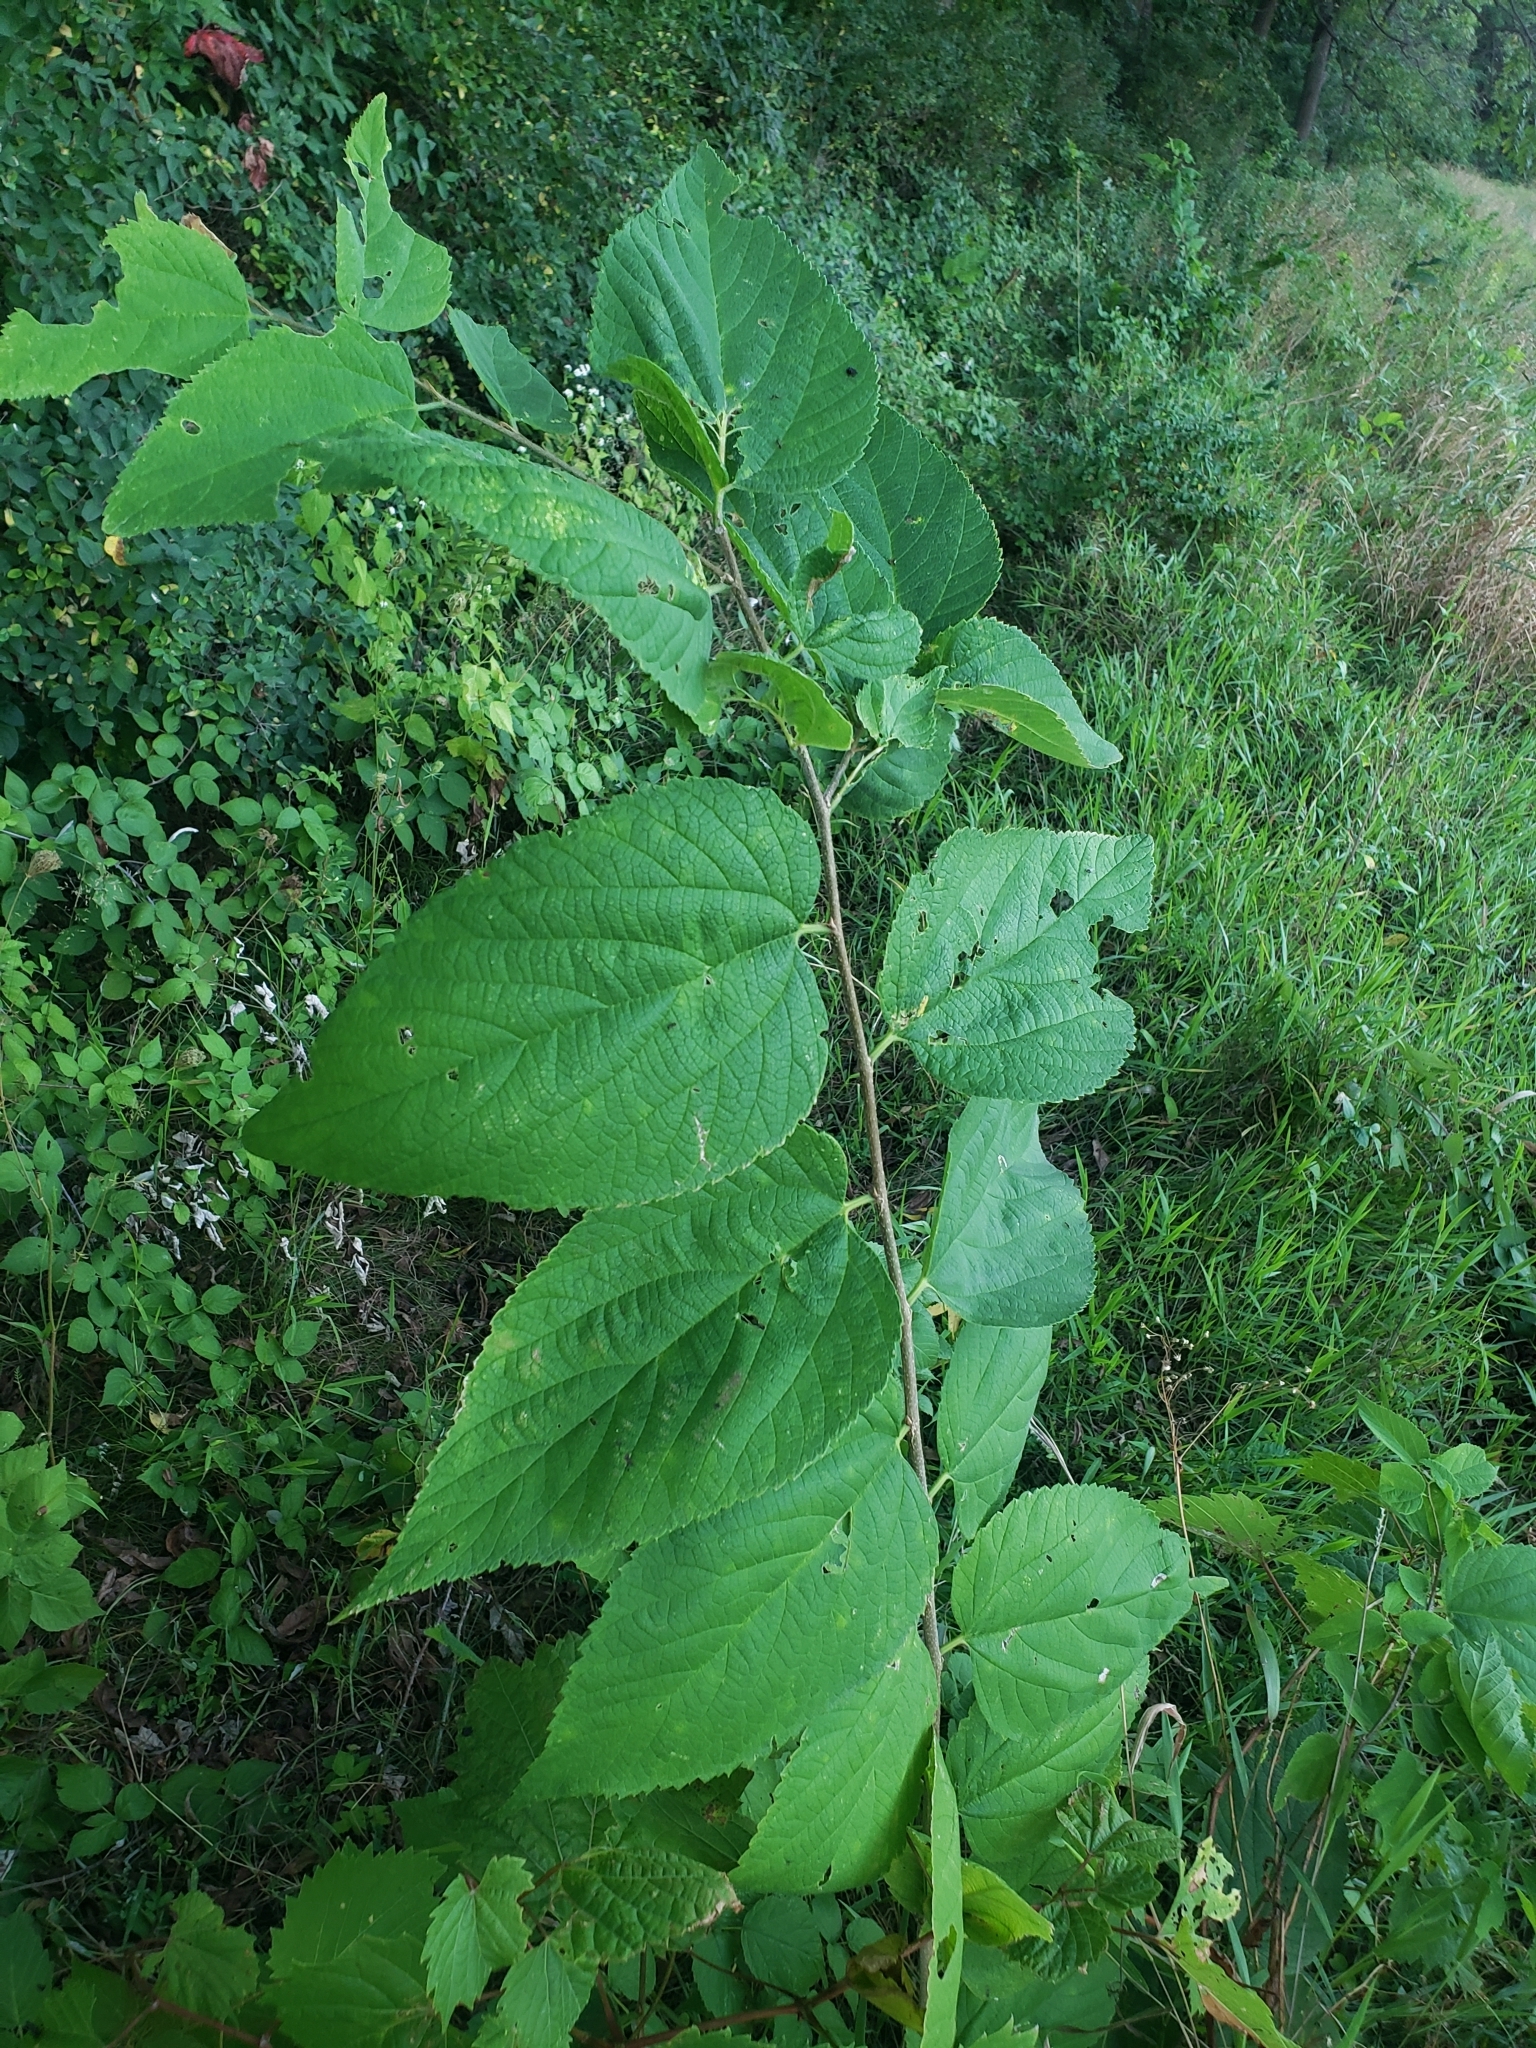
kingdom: Plantae
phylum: Tracheophyta
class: Magnoliopsida
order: Rosales
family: Cannabaceae
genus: Celtis
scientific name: Celtis occidentalis
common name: Common hackberry
